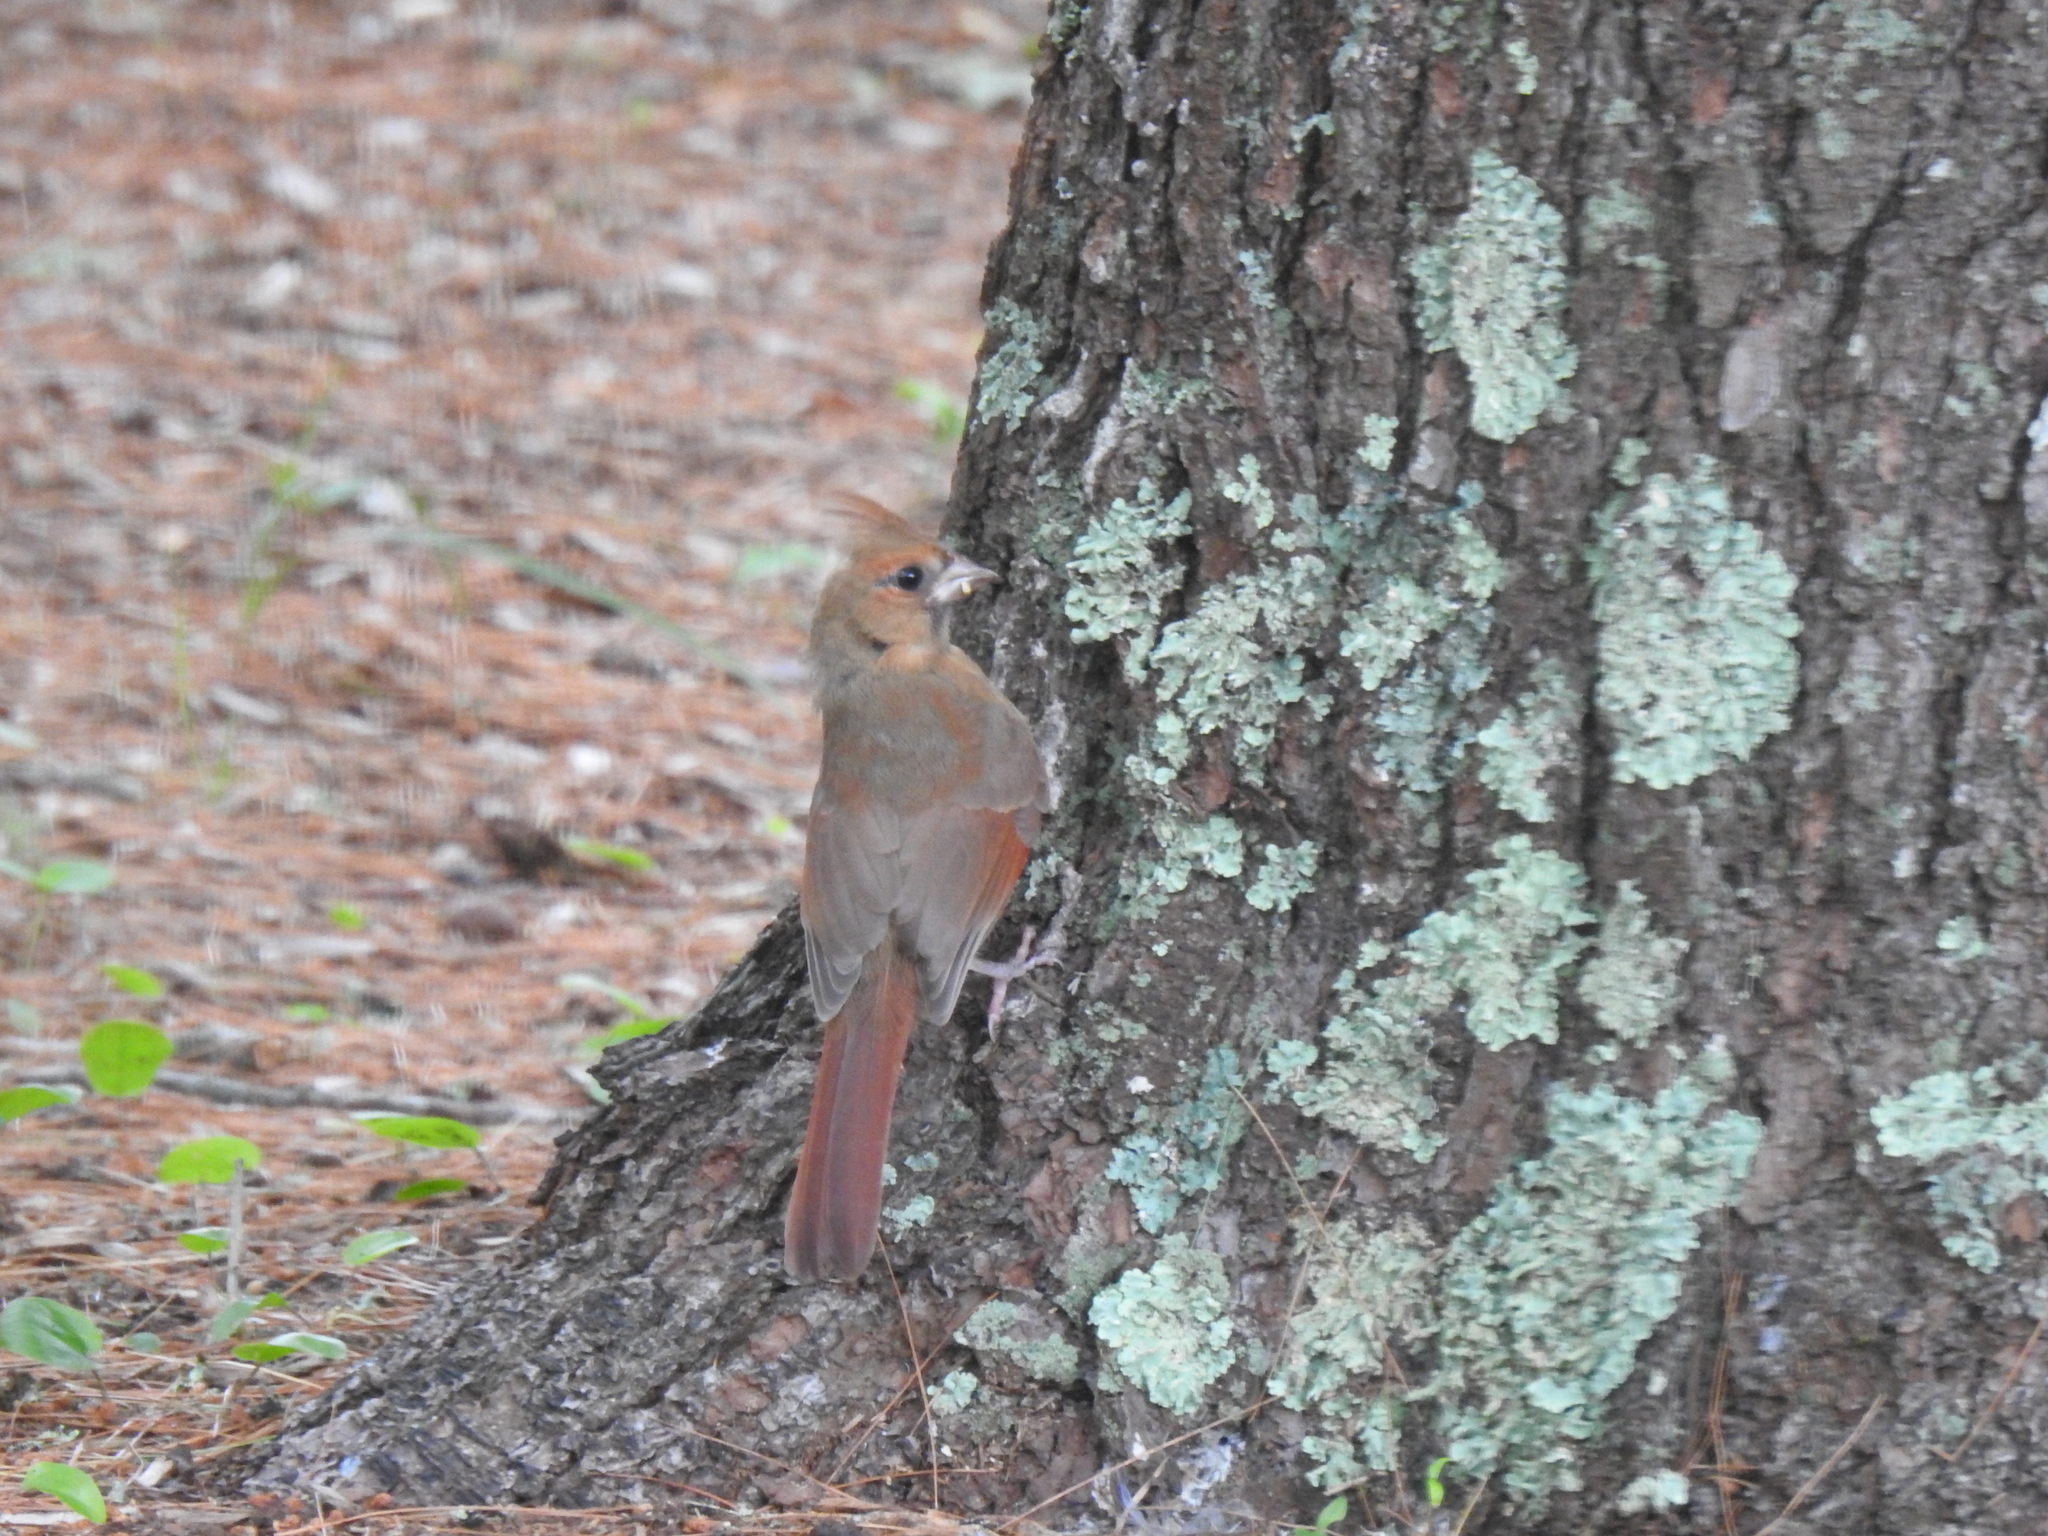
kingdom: Animalia
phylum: Chordata
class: Aves
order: Passeriformes
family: Cardinalidae
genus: Cardinalis
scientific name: Cardinalis cardinalis
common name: Northern cardinal
